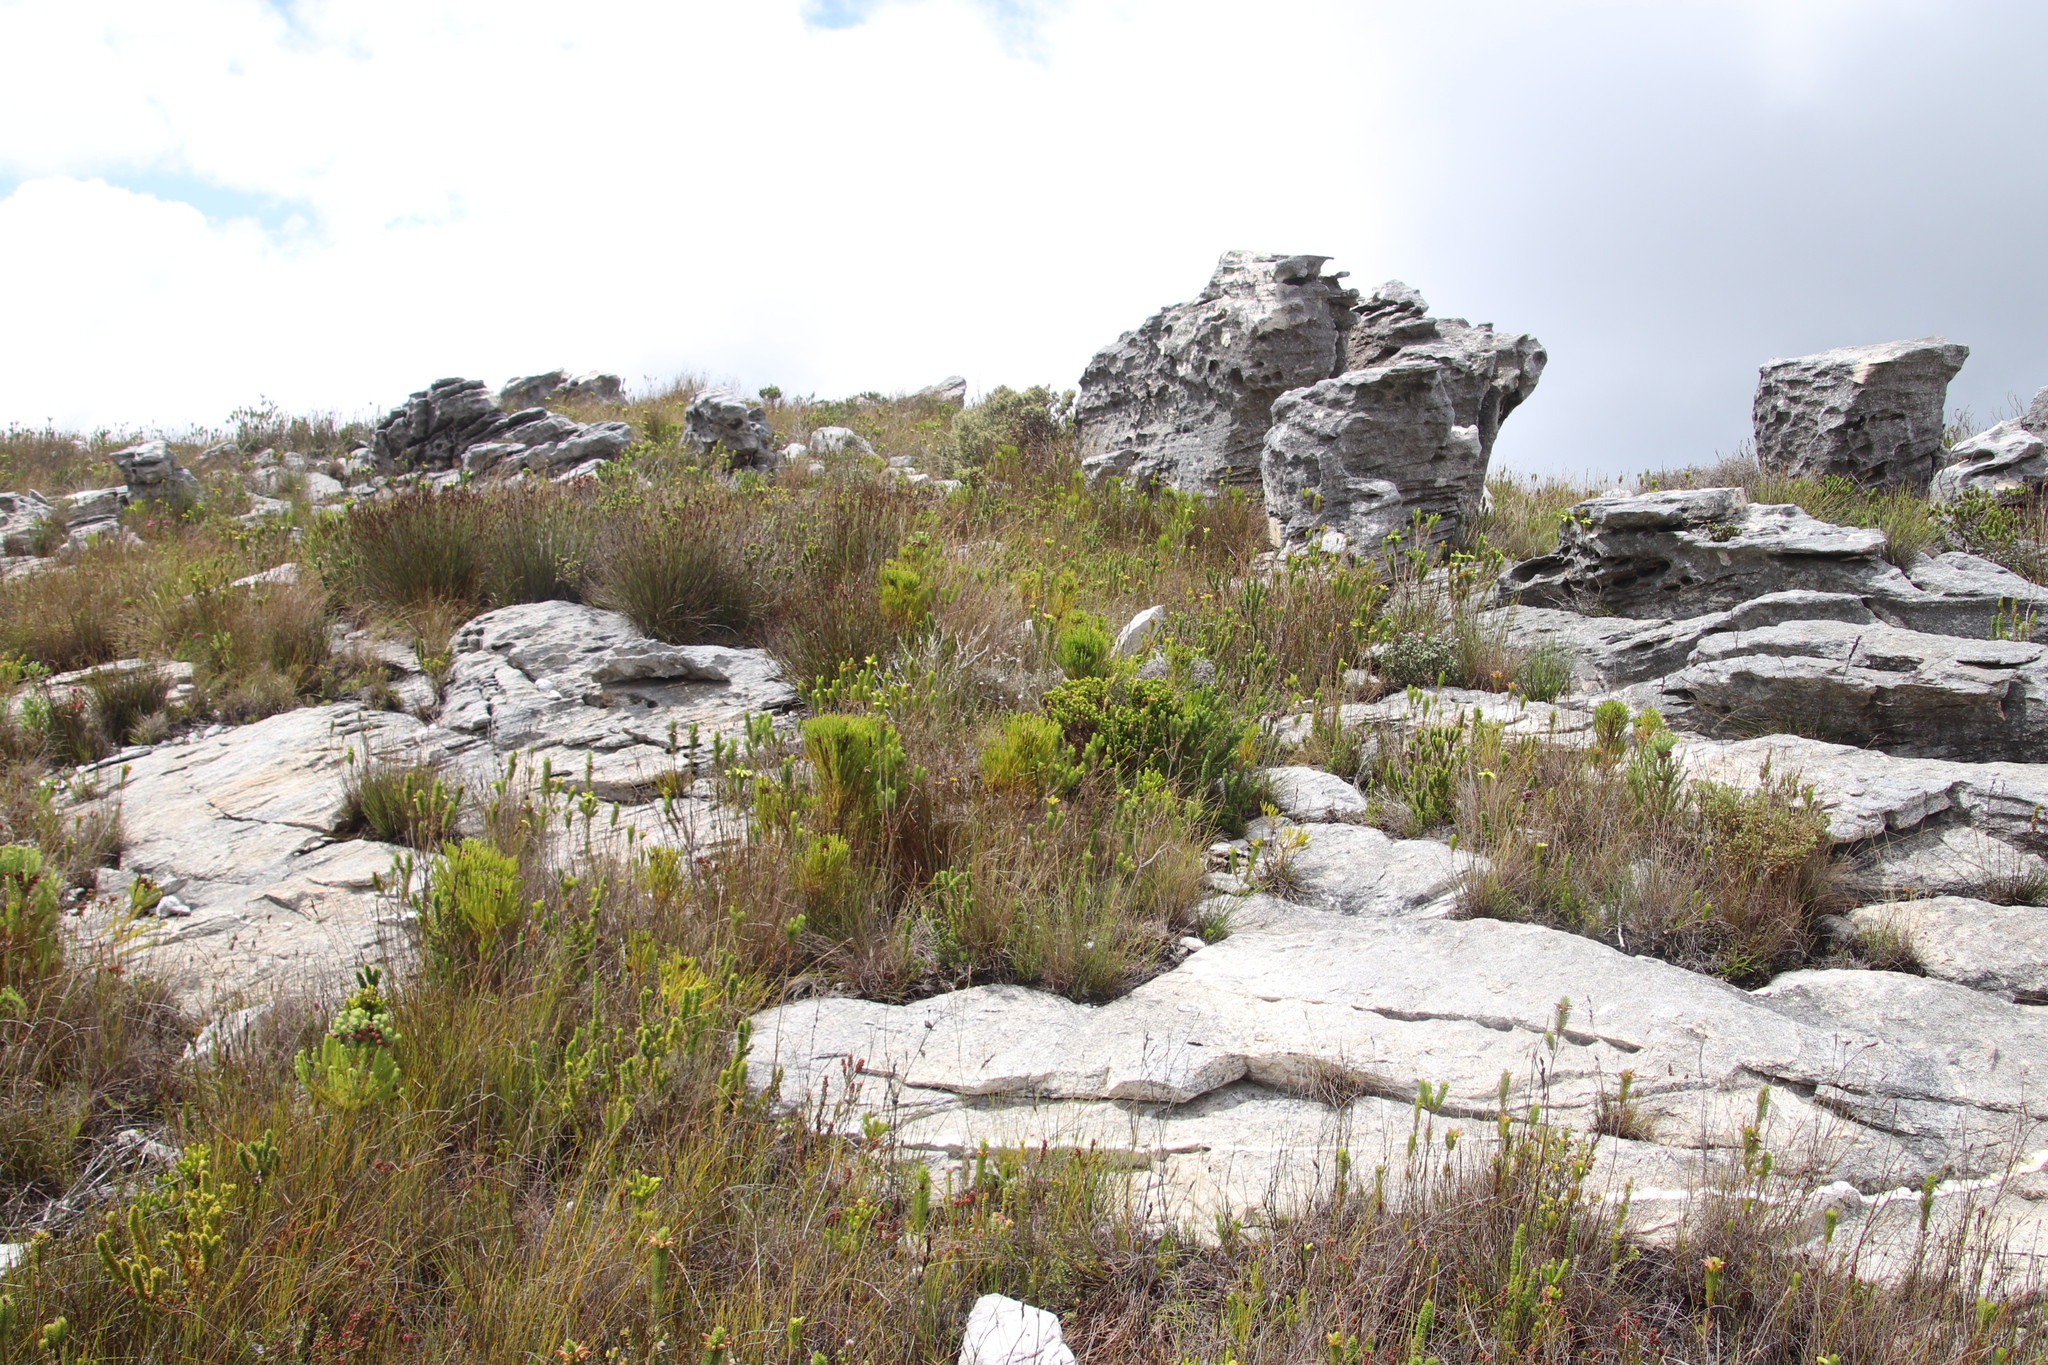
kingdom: Plantae
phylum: Tracheophyta
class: Magnoliopsida
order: Ericales
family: Ericaceae
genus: Erica
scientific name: Erica viscaria
